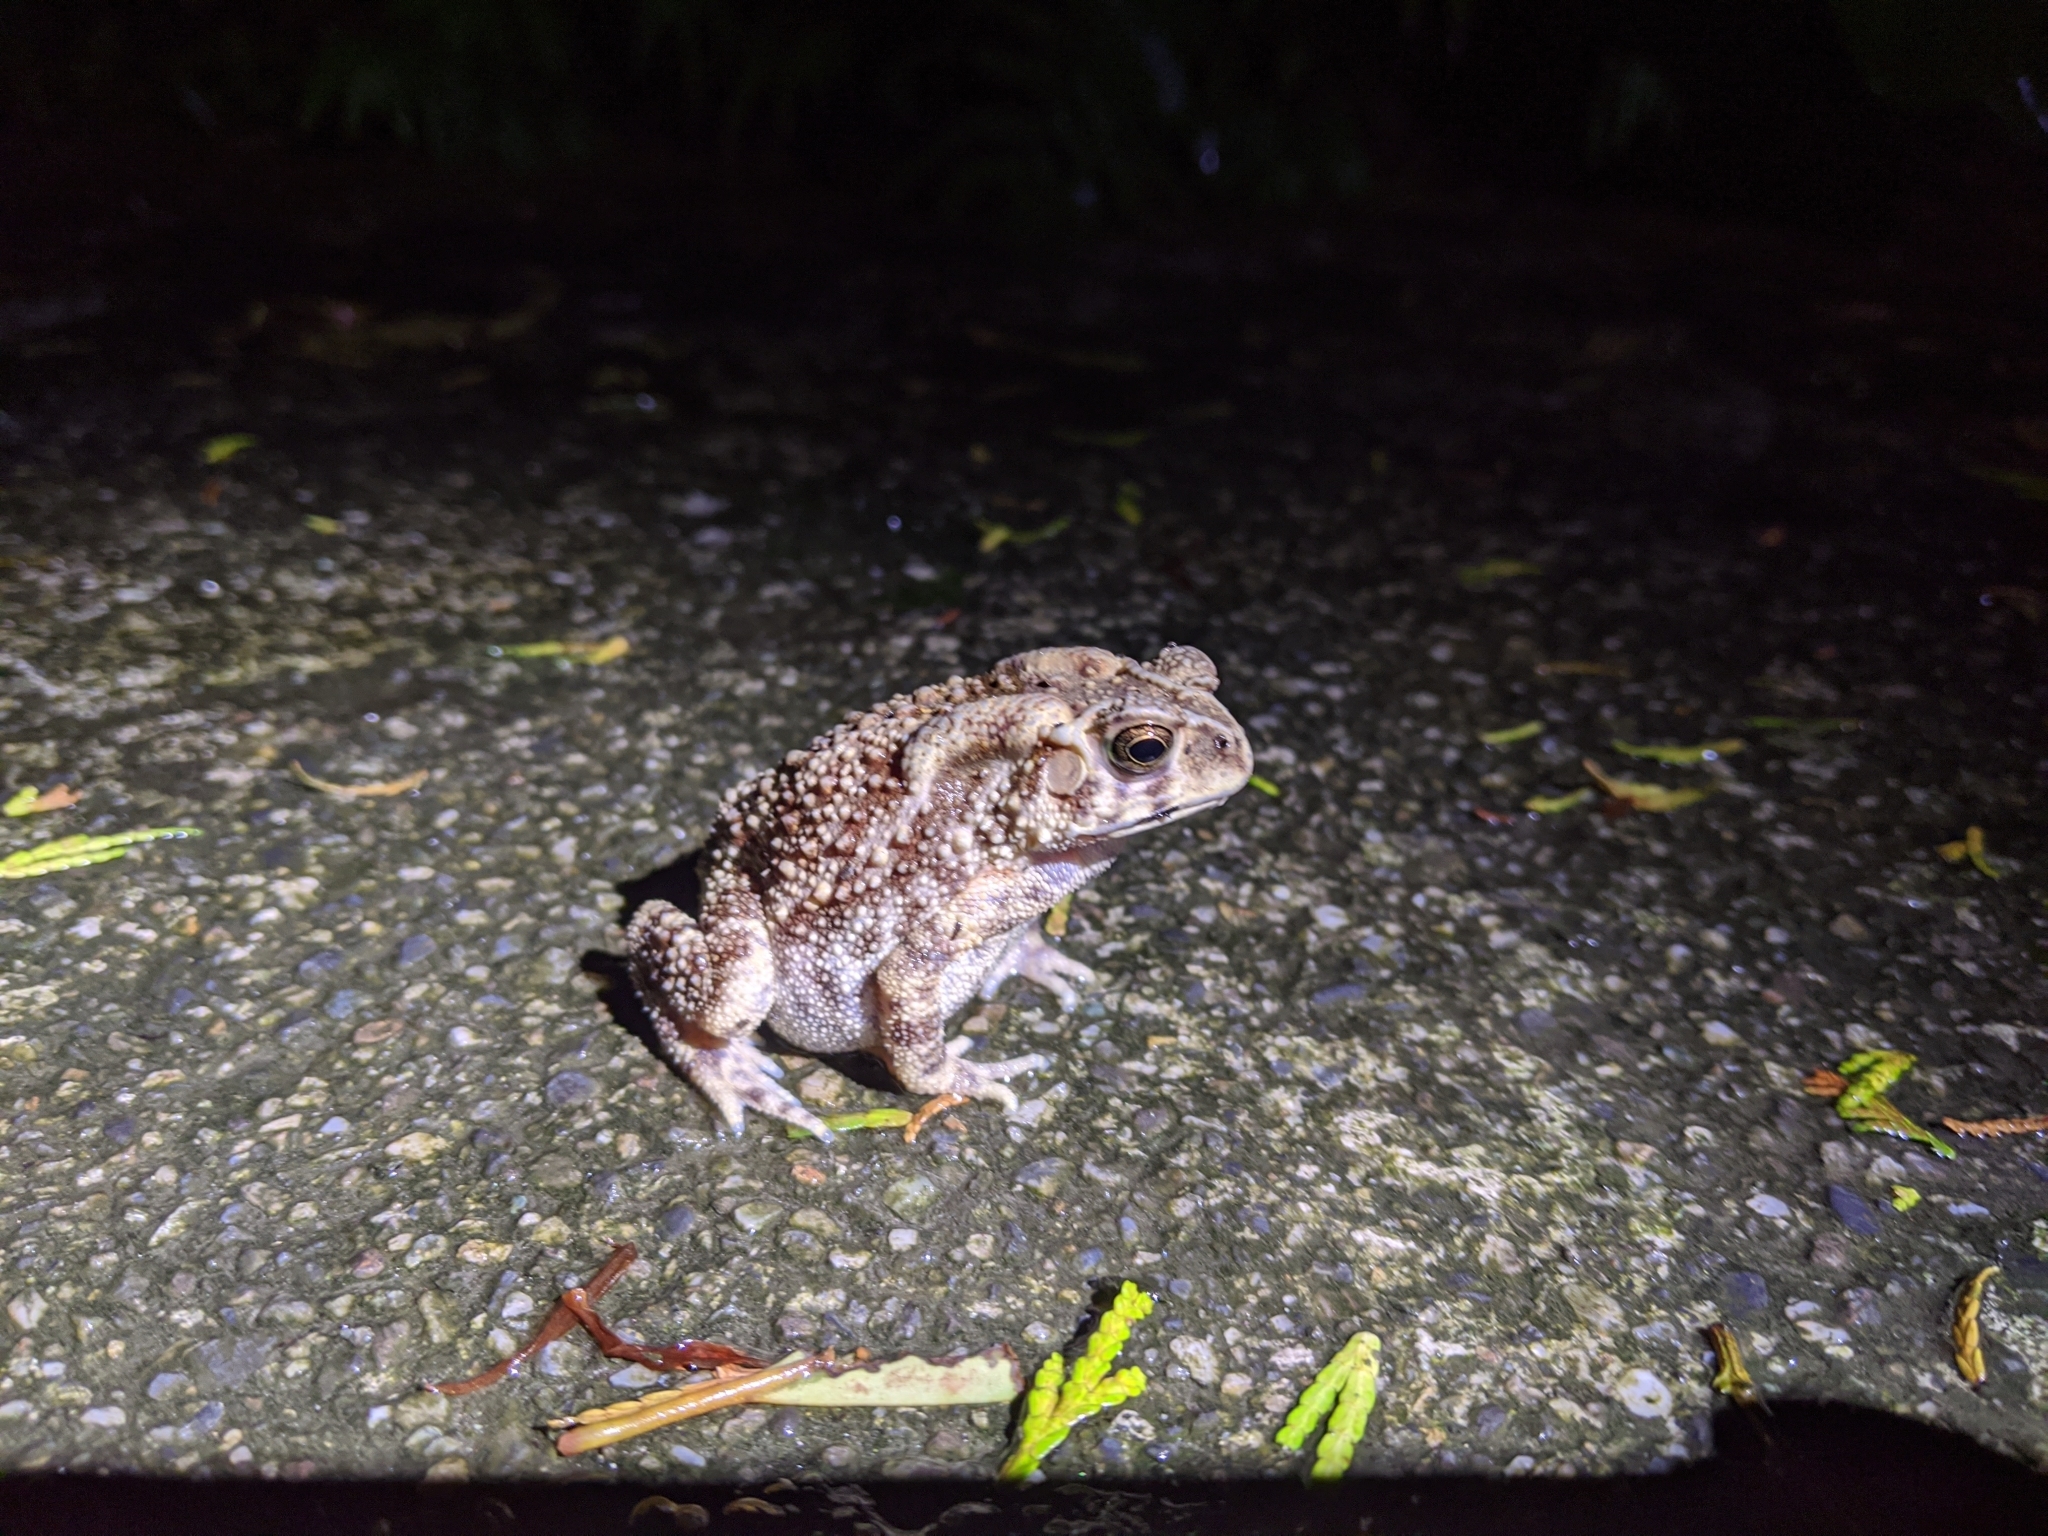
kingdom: Animalia
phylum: Chordata
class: Amphibia
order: Anura
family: Bufonidae
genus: Duttaphrynus
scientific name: Duttaphrynus melanostictus
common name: Common sunda toad
